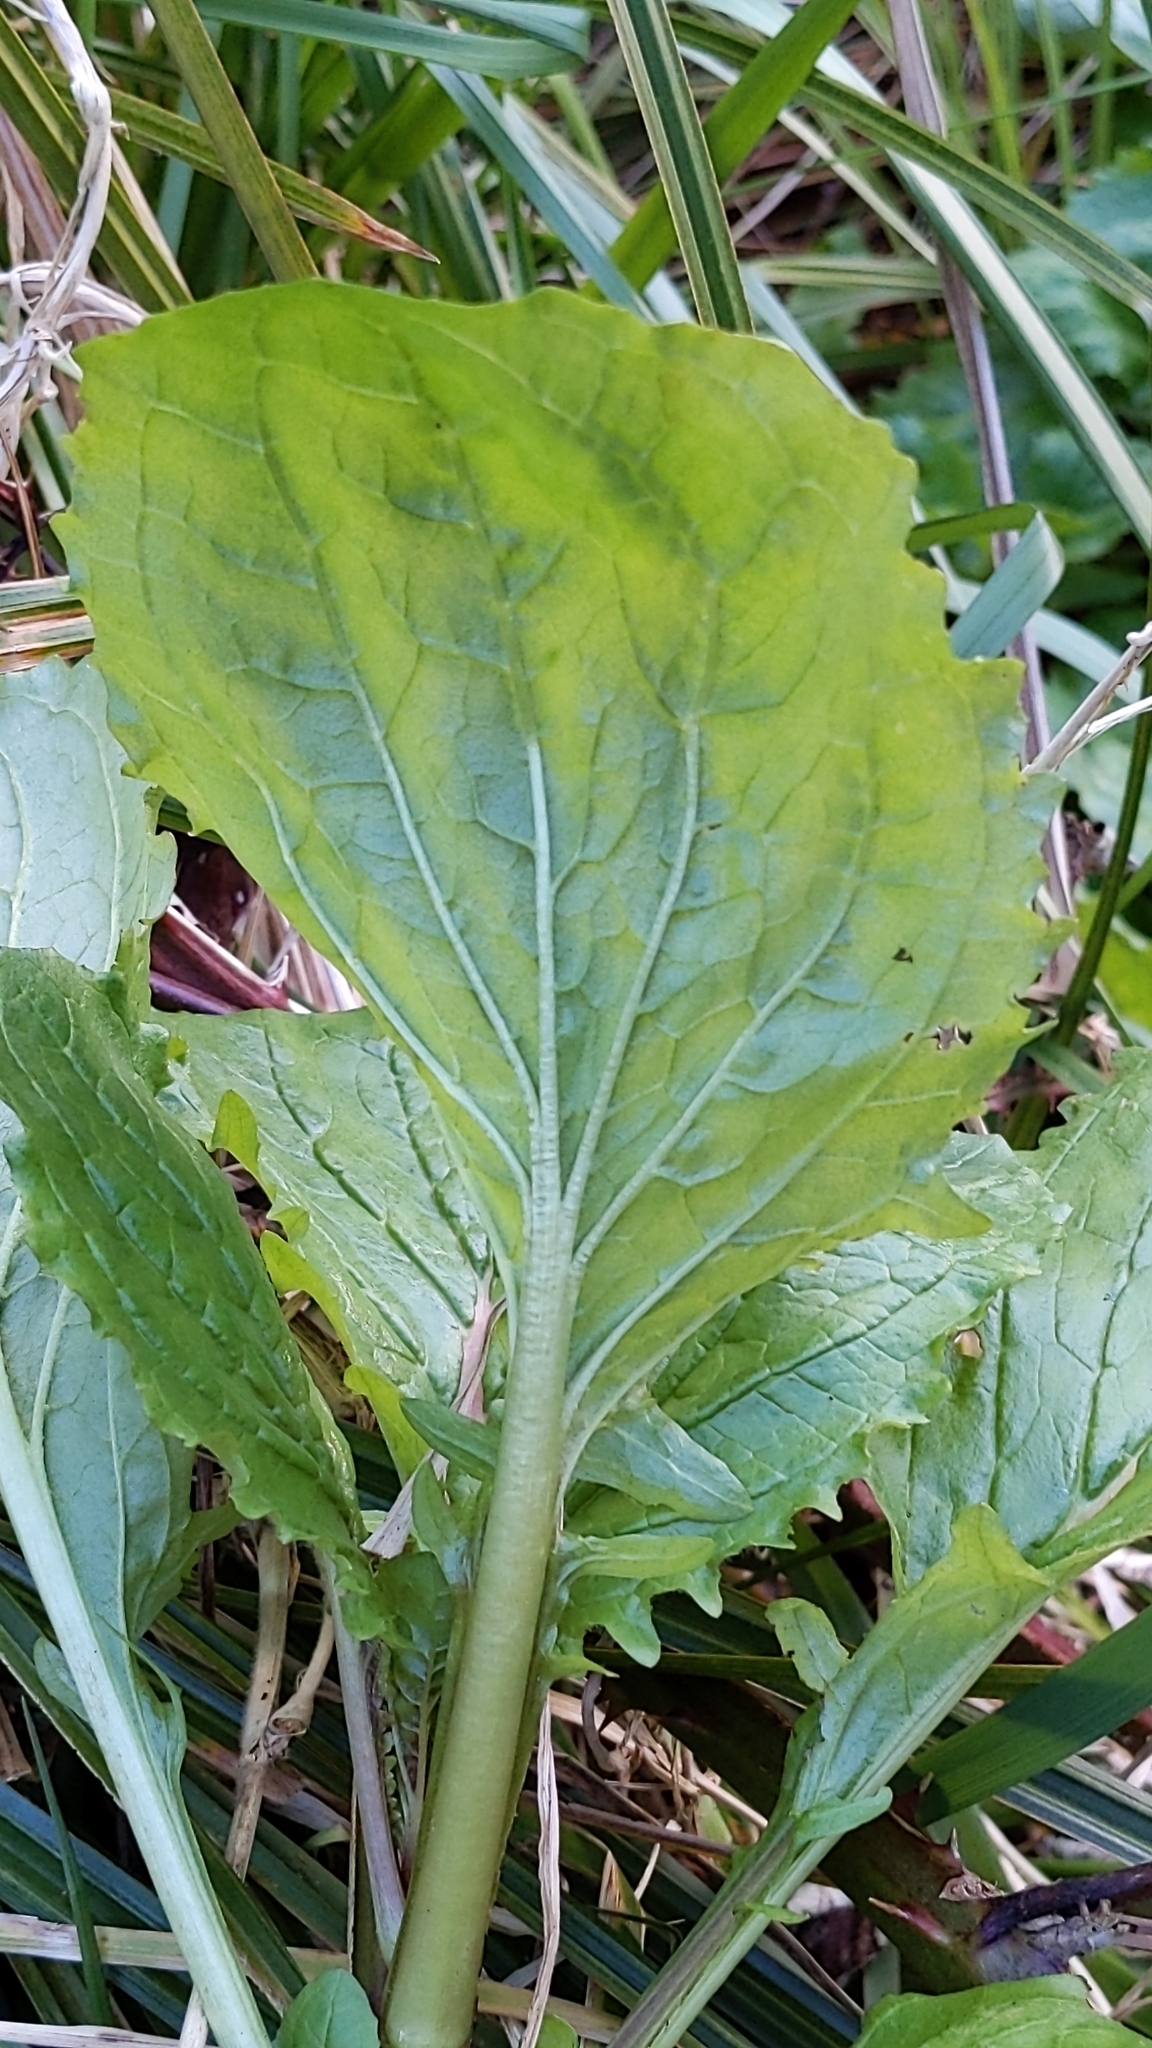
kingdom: Plantae
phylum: Tracheophyta
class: Magnoliopsida
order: Lamiales
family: Phrymaceae
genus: Erythranthe
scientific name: Erythranthe guttata
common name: Monkeyflower
